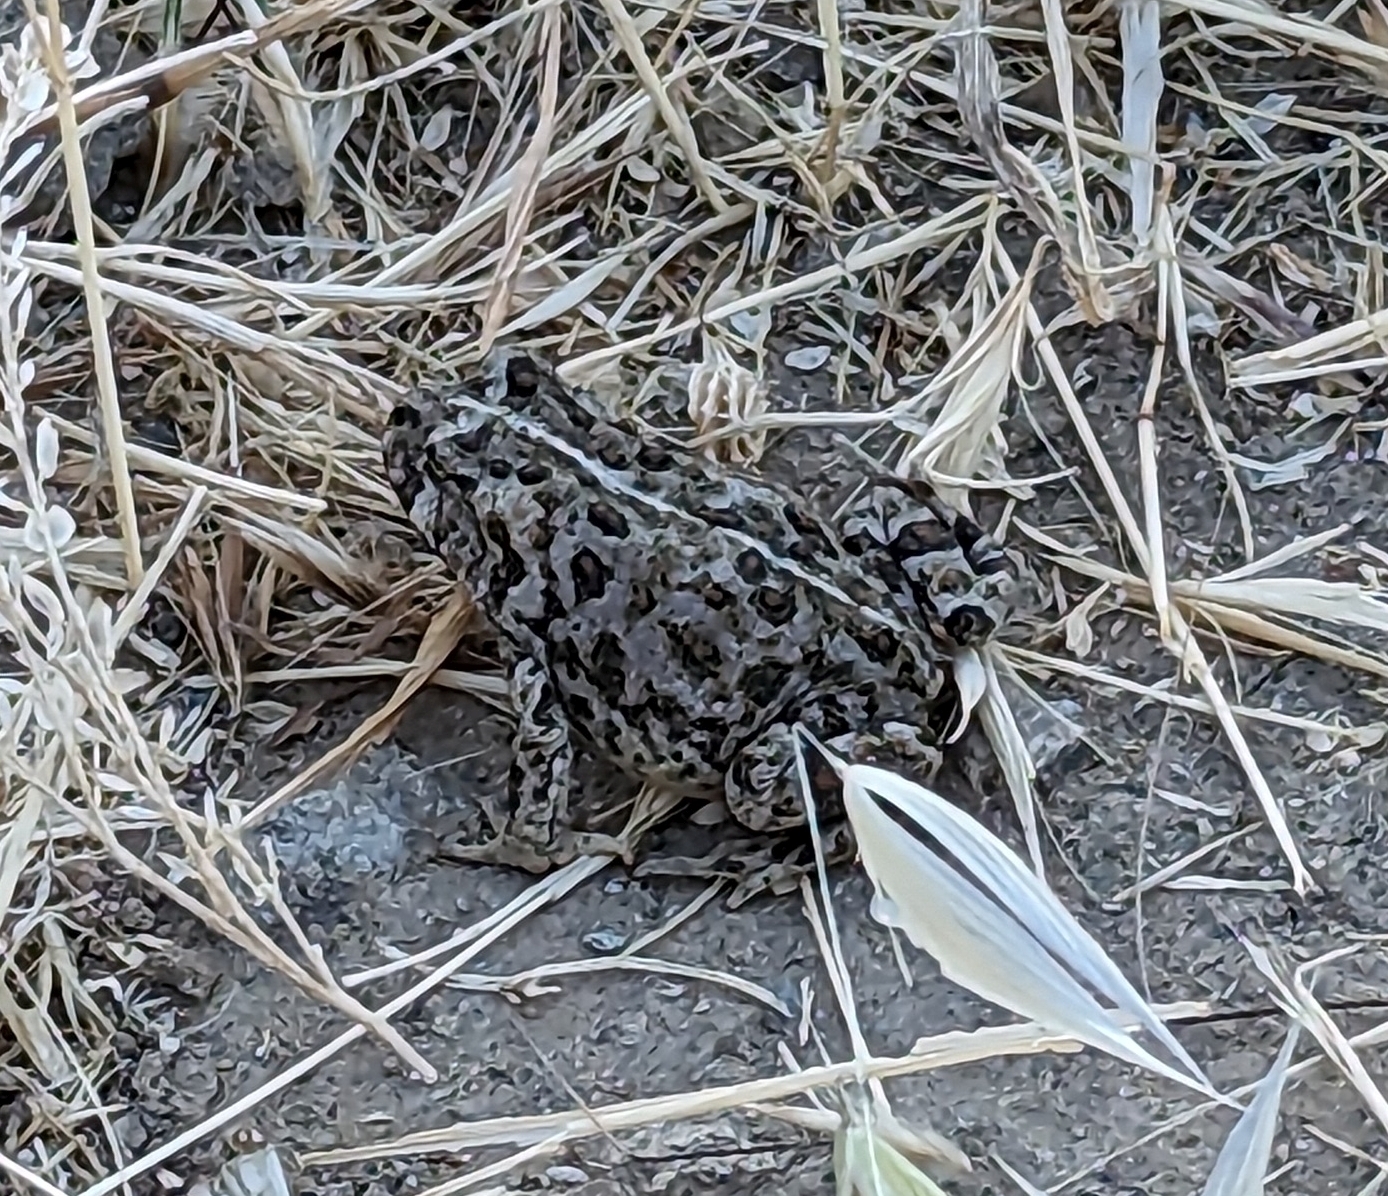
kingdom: Animalia
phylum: Chordata
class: Amphibia
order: Anura
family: Bufonidae
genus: Anaxyrus
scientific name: Anaxyrus boreas
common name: Western toad
